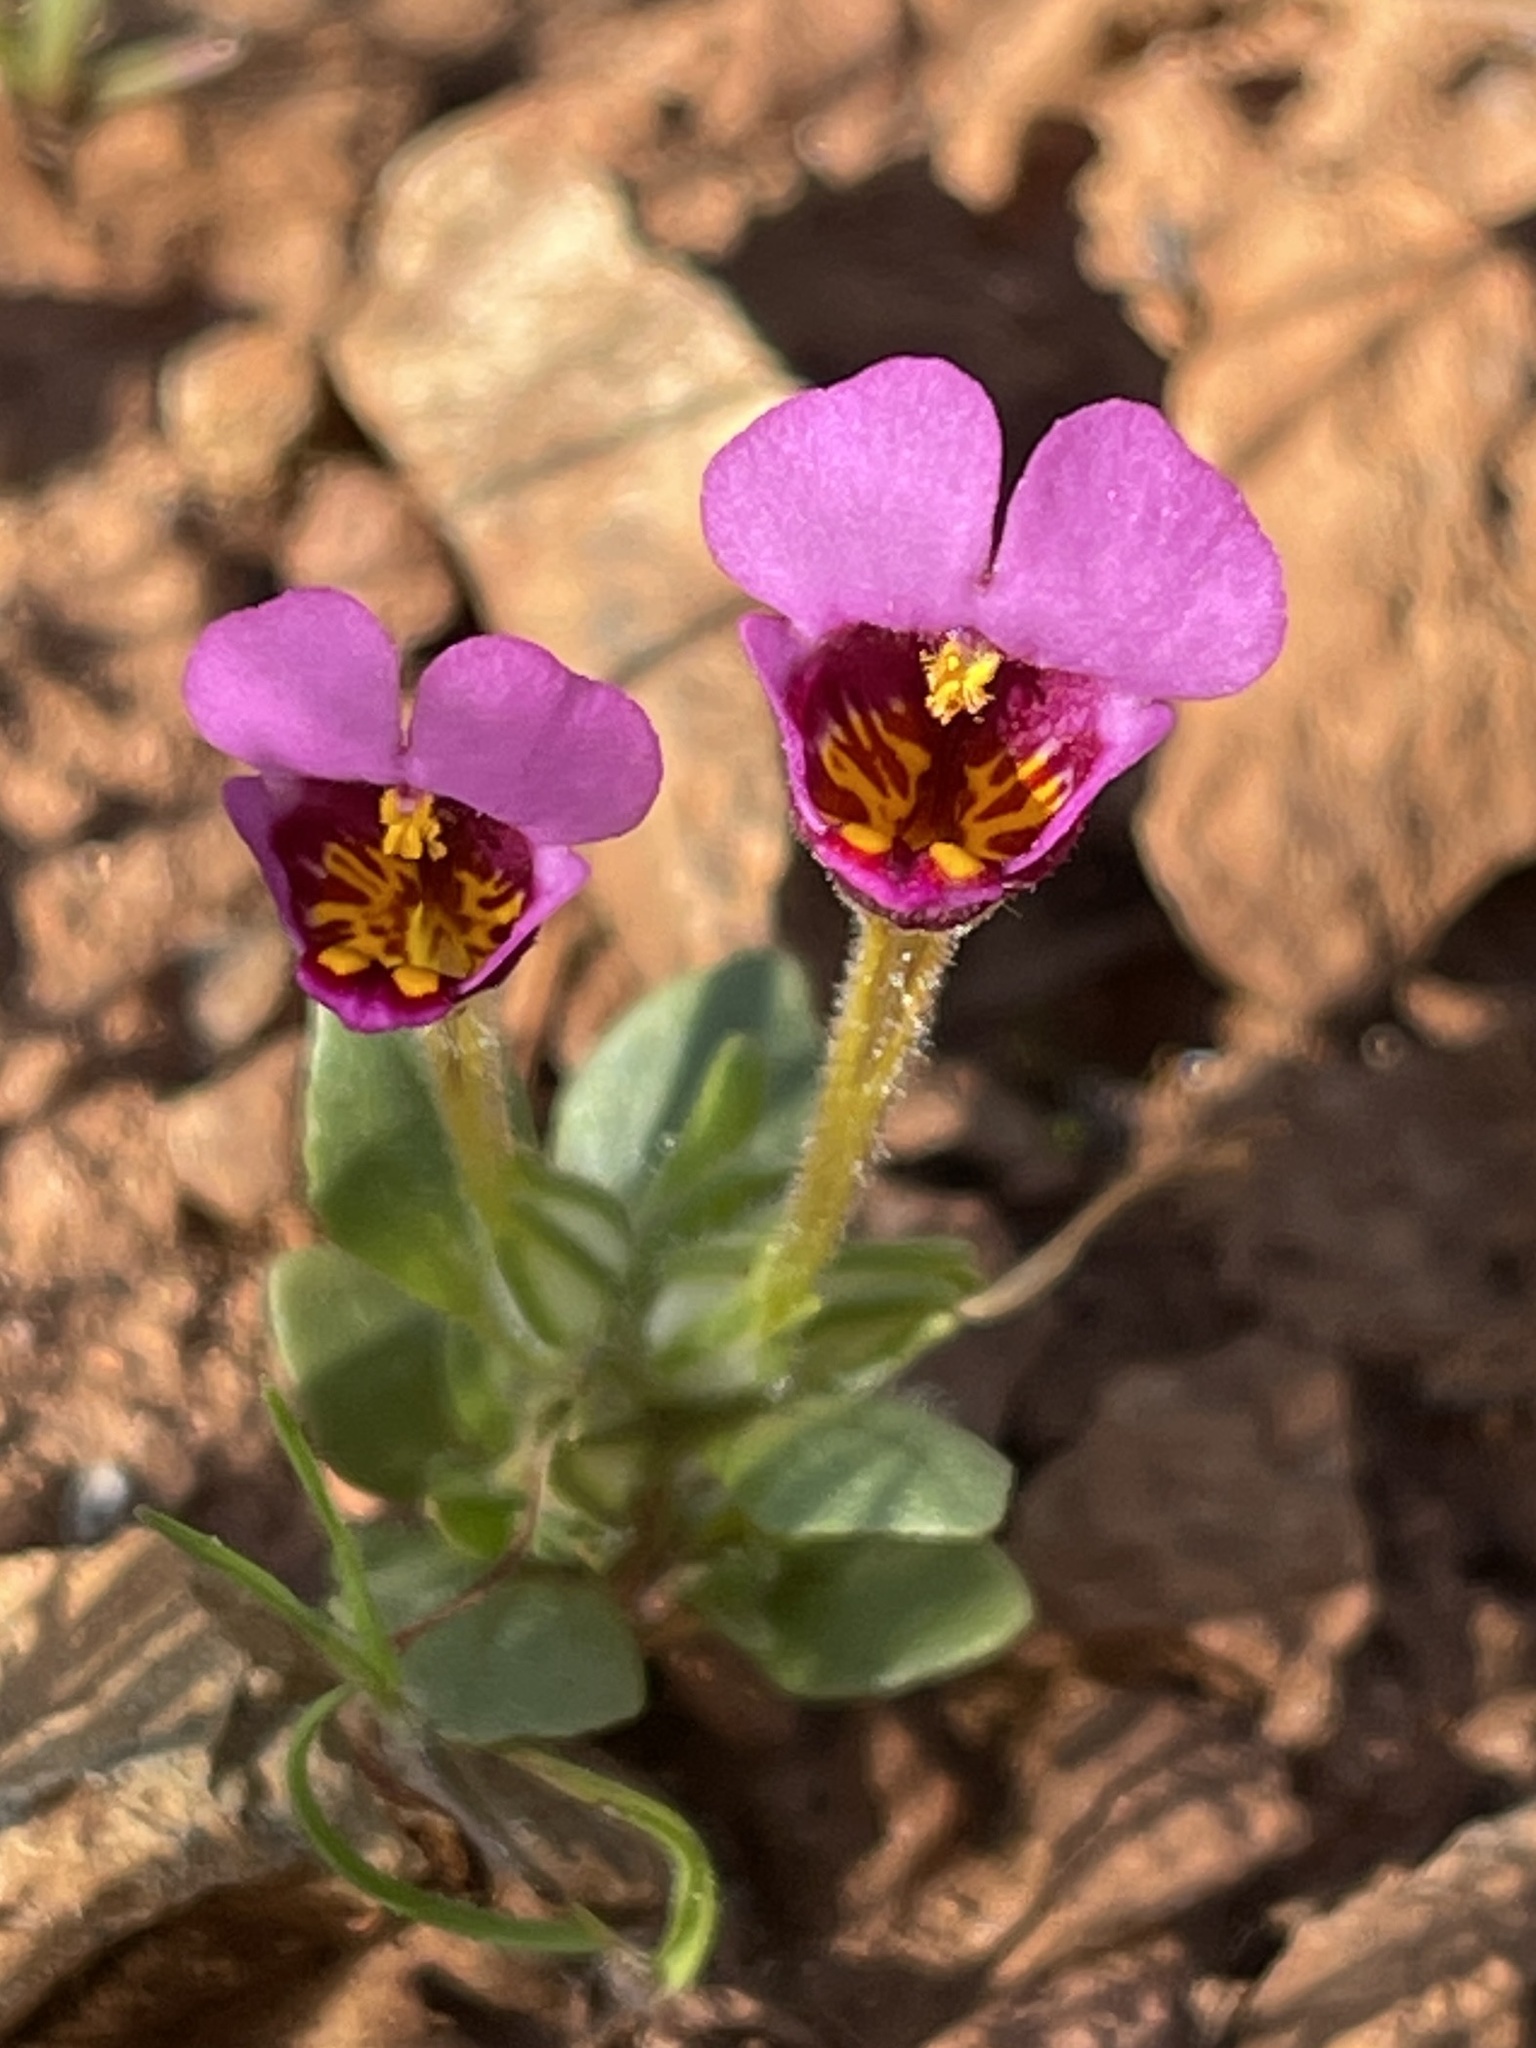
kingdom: Plantae
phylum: Tracheophyta
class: Magnoliopsida
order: Lamiales
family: Phrymaceae
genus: Diplacus
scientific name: Diplacus douglasii
